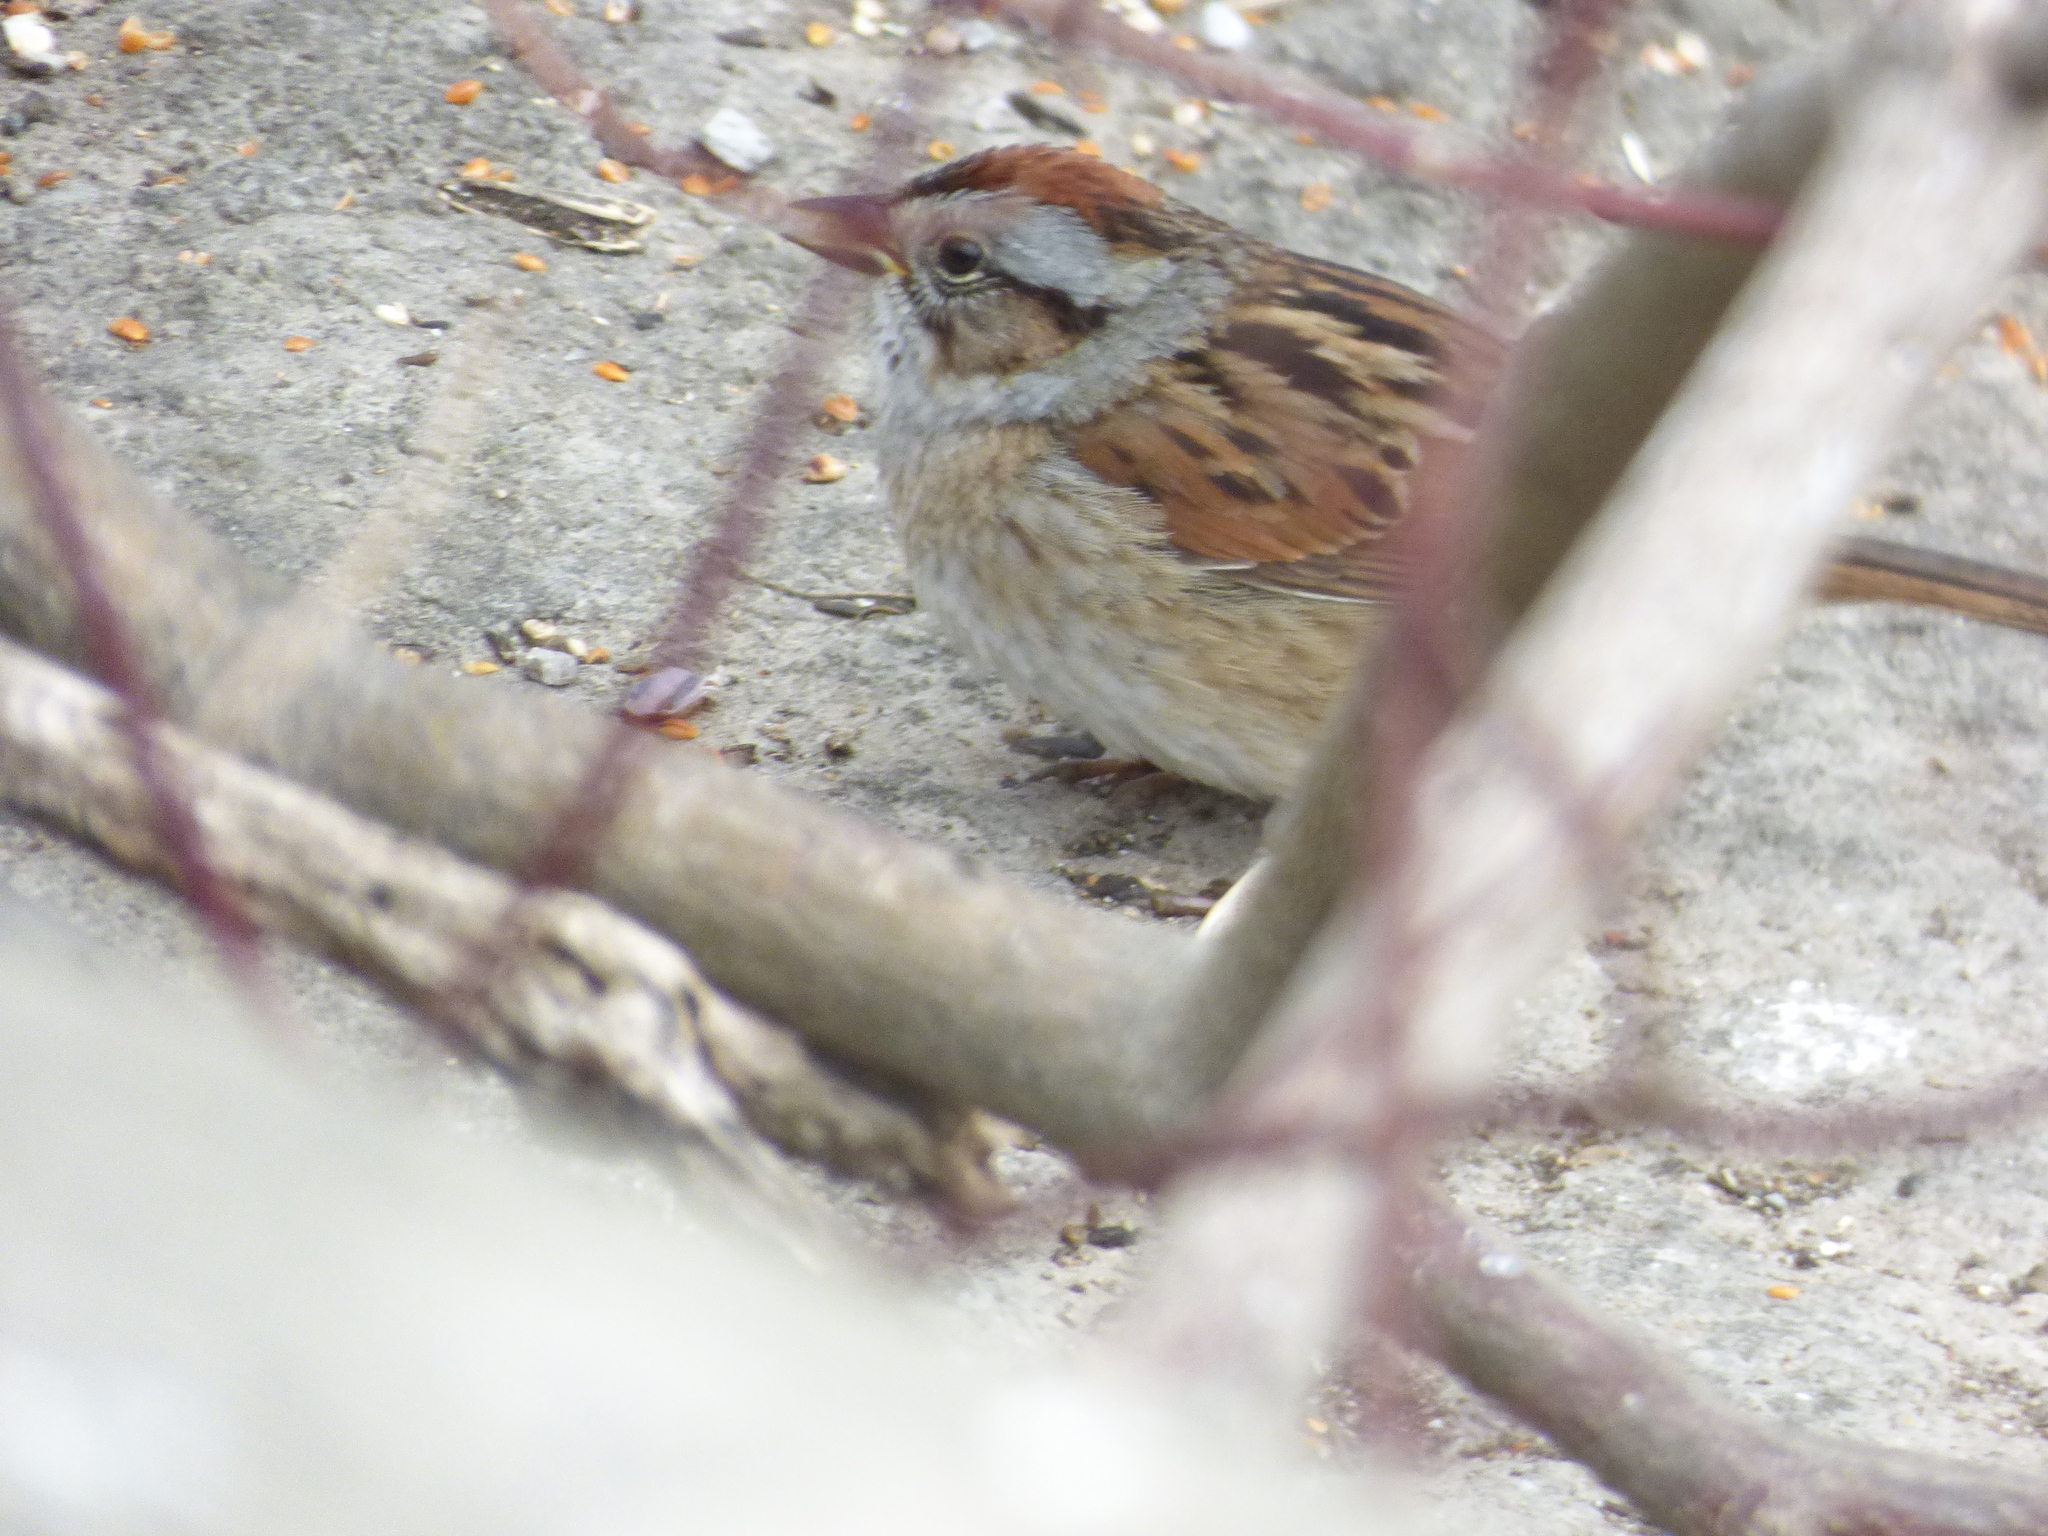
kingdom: Animalia
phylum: Chordata
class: Aves
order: Passeriformes
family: Passerellidae
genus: Melospiza
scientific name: Melospiza georgiana
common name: Swamp sparrow
